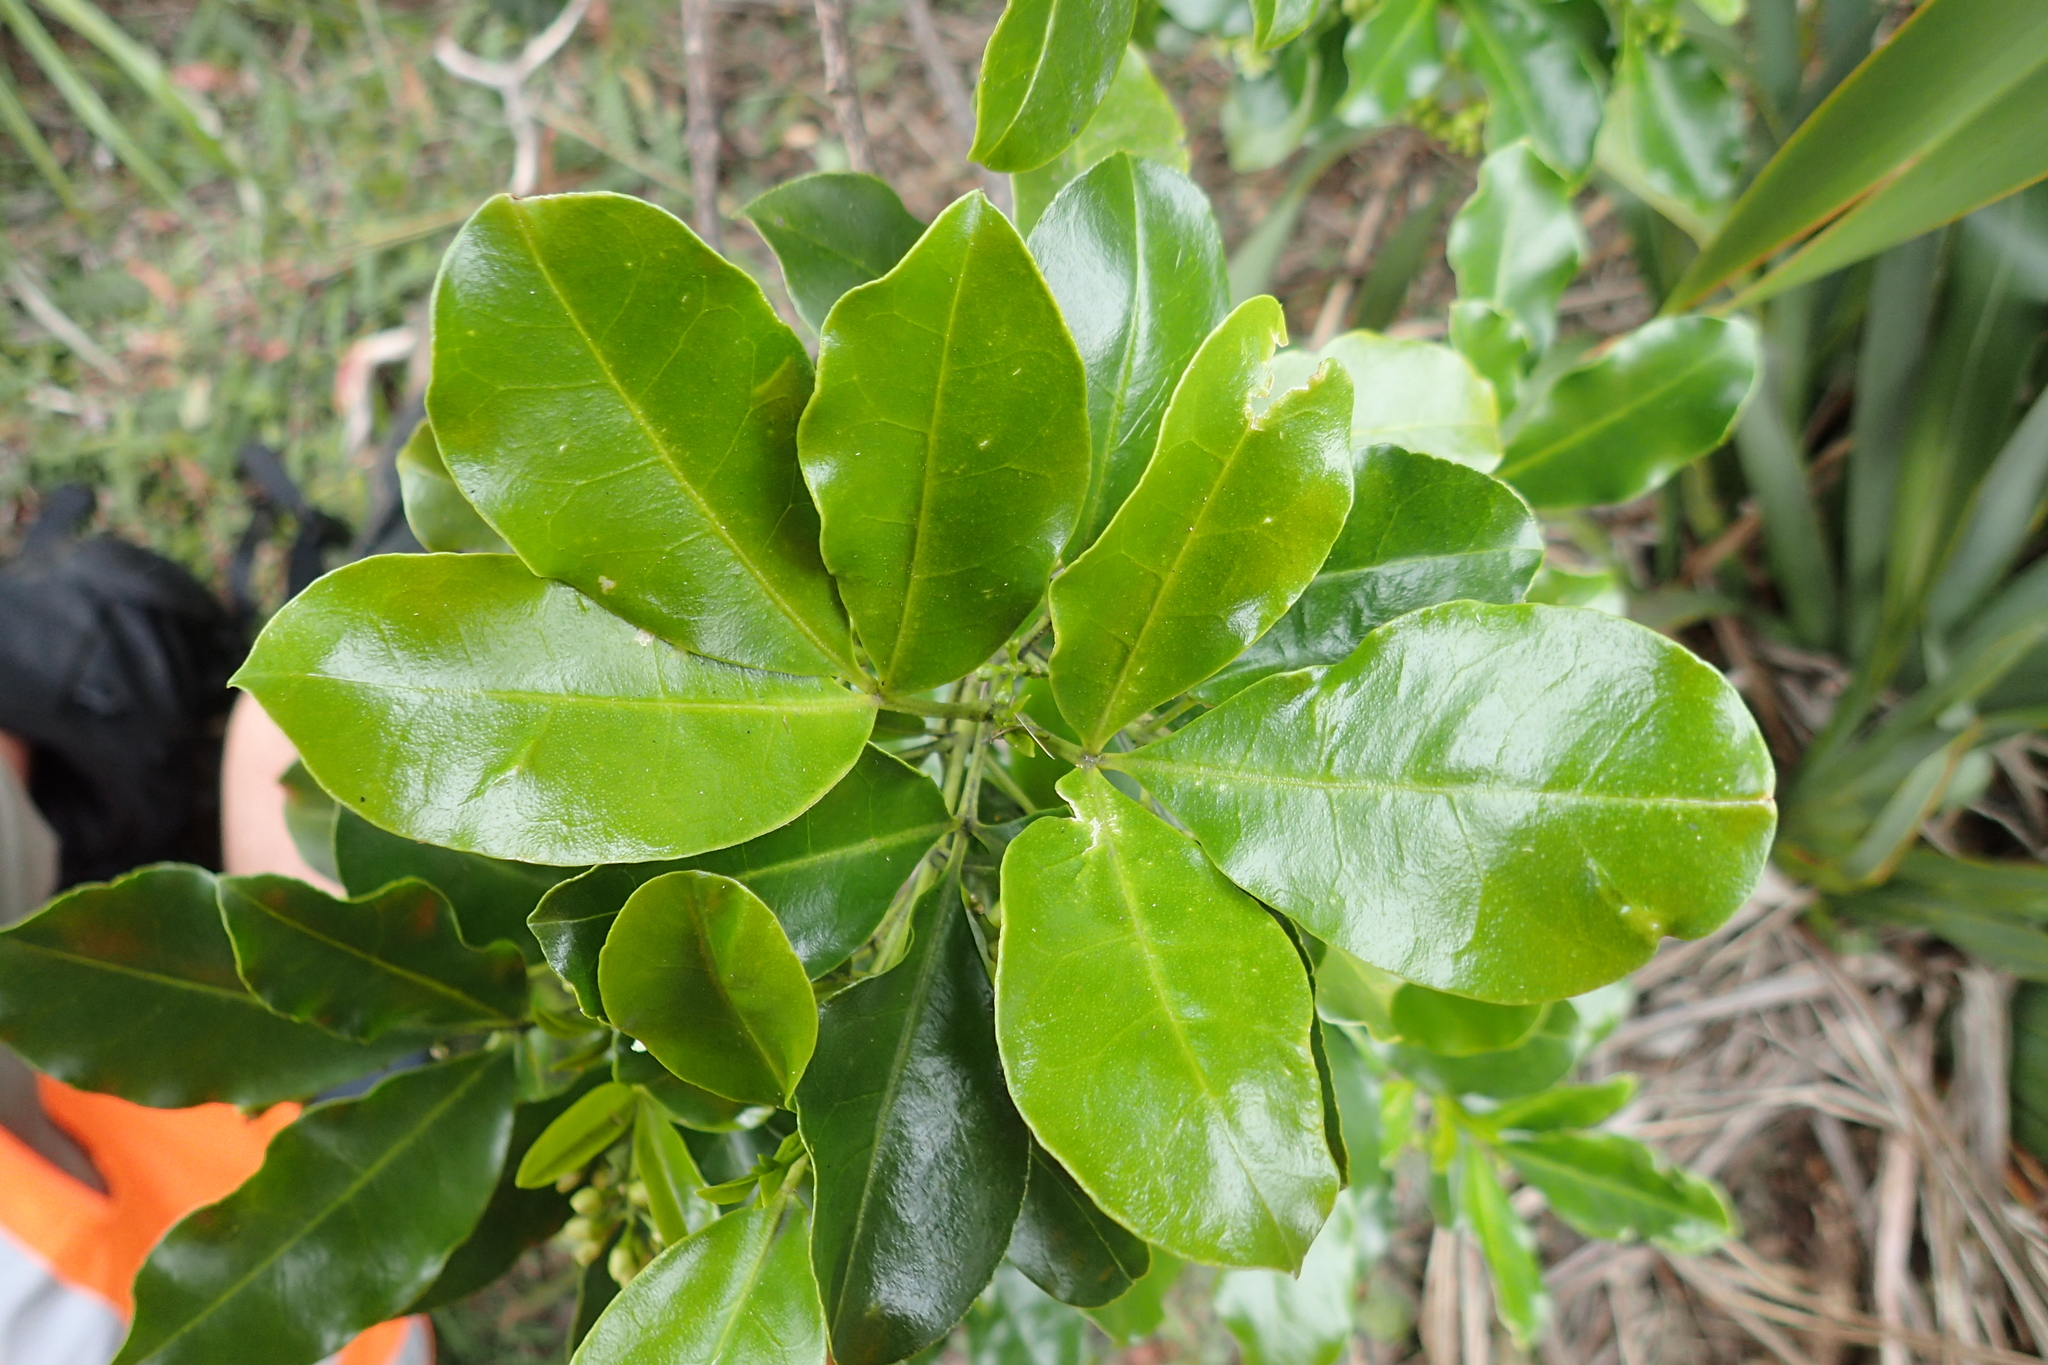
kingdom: Plantae
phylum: Tracheophyta
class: Magnoliopsida
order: Sapindales
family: Rutaceae
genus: Melicope
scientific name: Melicope ternata
